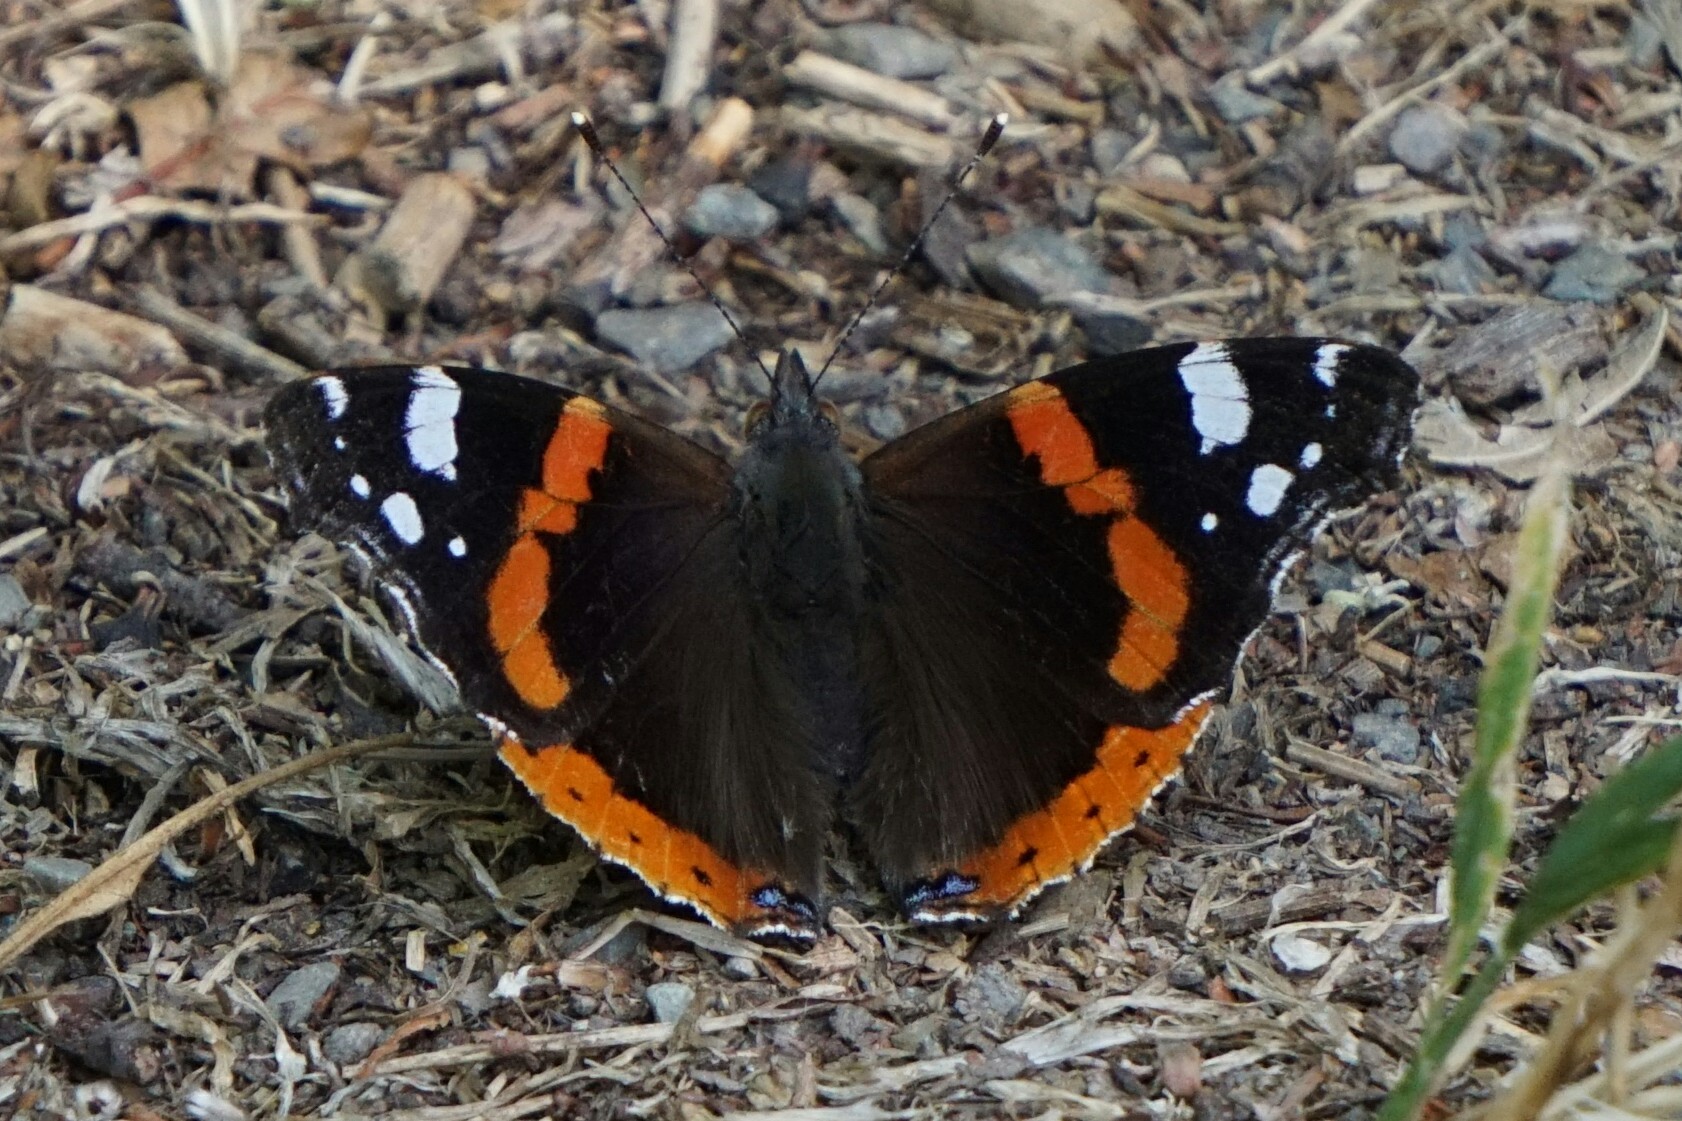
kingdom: Animalia
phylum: Arthropoda
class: Insecta
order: Lepidoptera
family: Nymphalidae
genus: Vanessa
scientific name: Vanessa atalanta
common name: Red admiral
